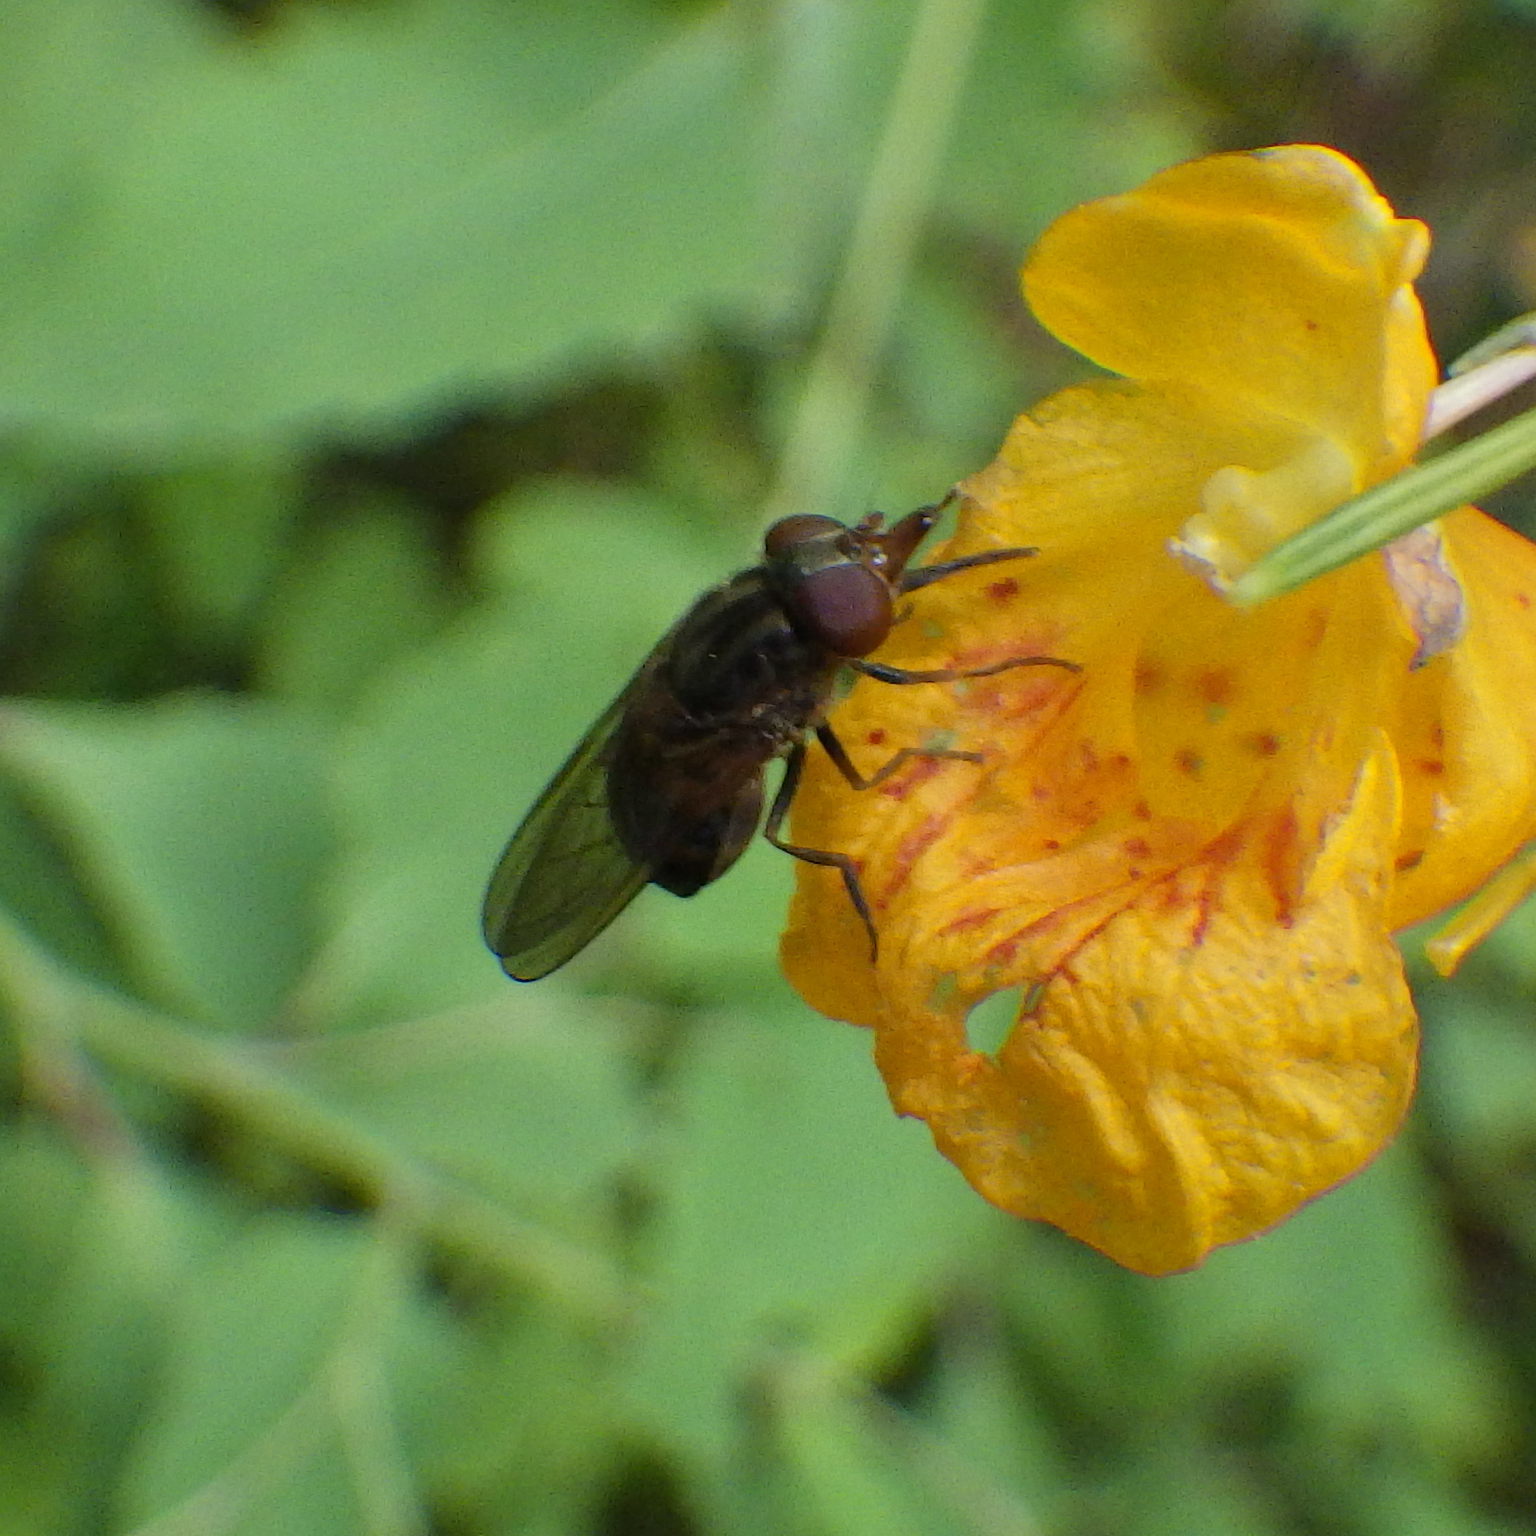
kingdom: Animalia
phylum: Arthropoda
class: Insecta
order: Diptera
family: Syrphidae
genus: Rhingia
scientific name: Rhingia nasica
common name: American snout fly
